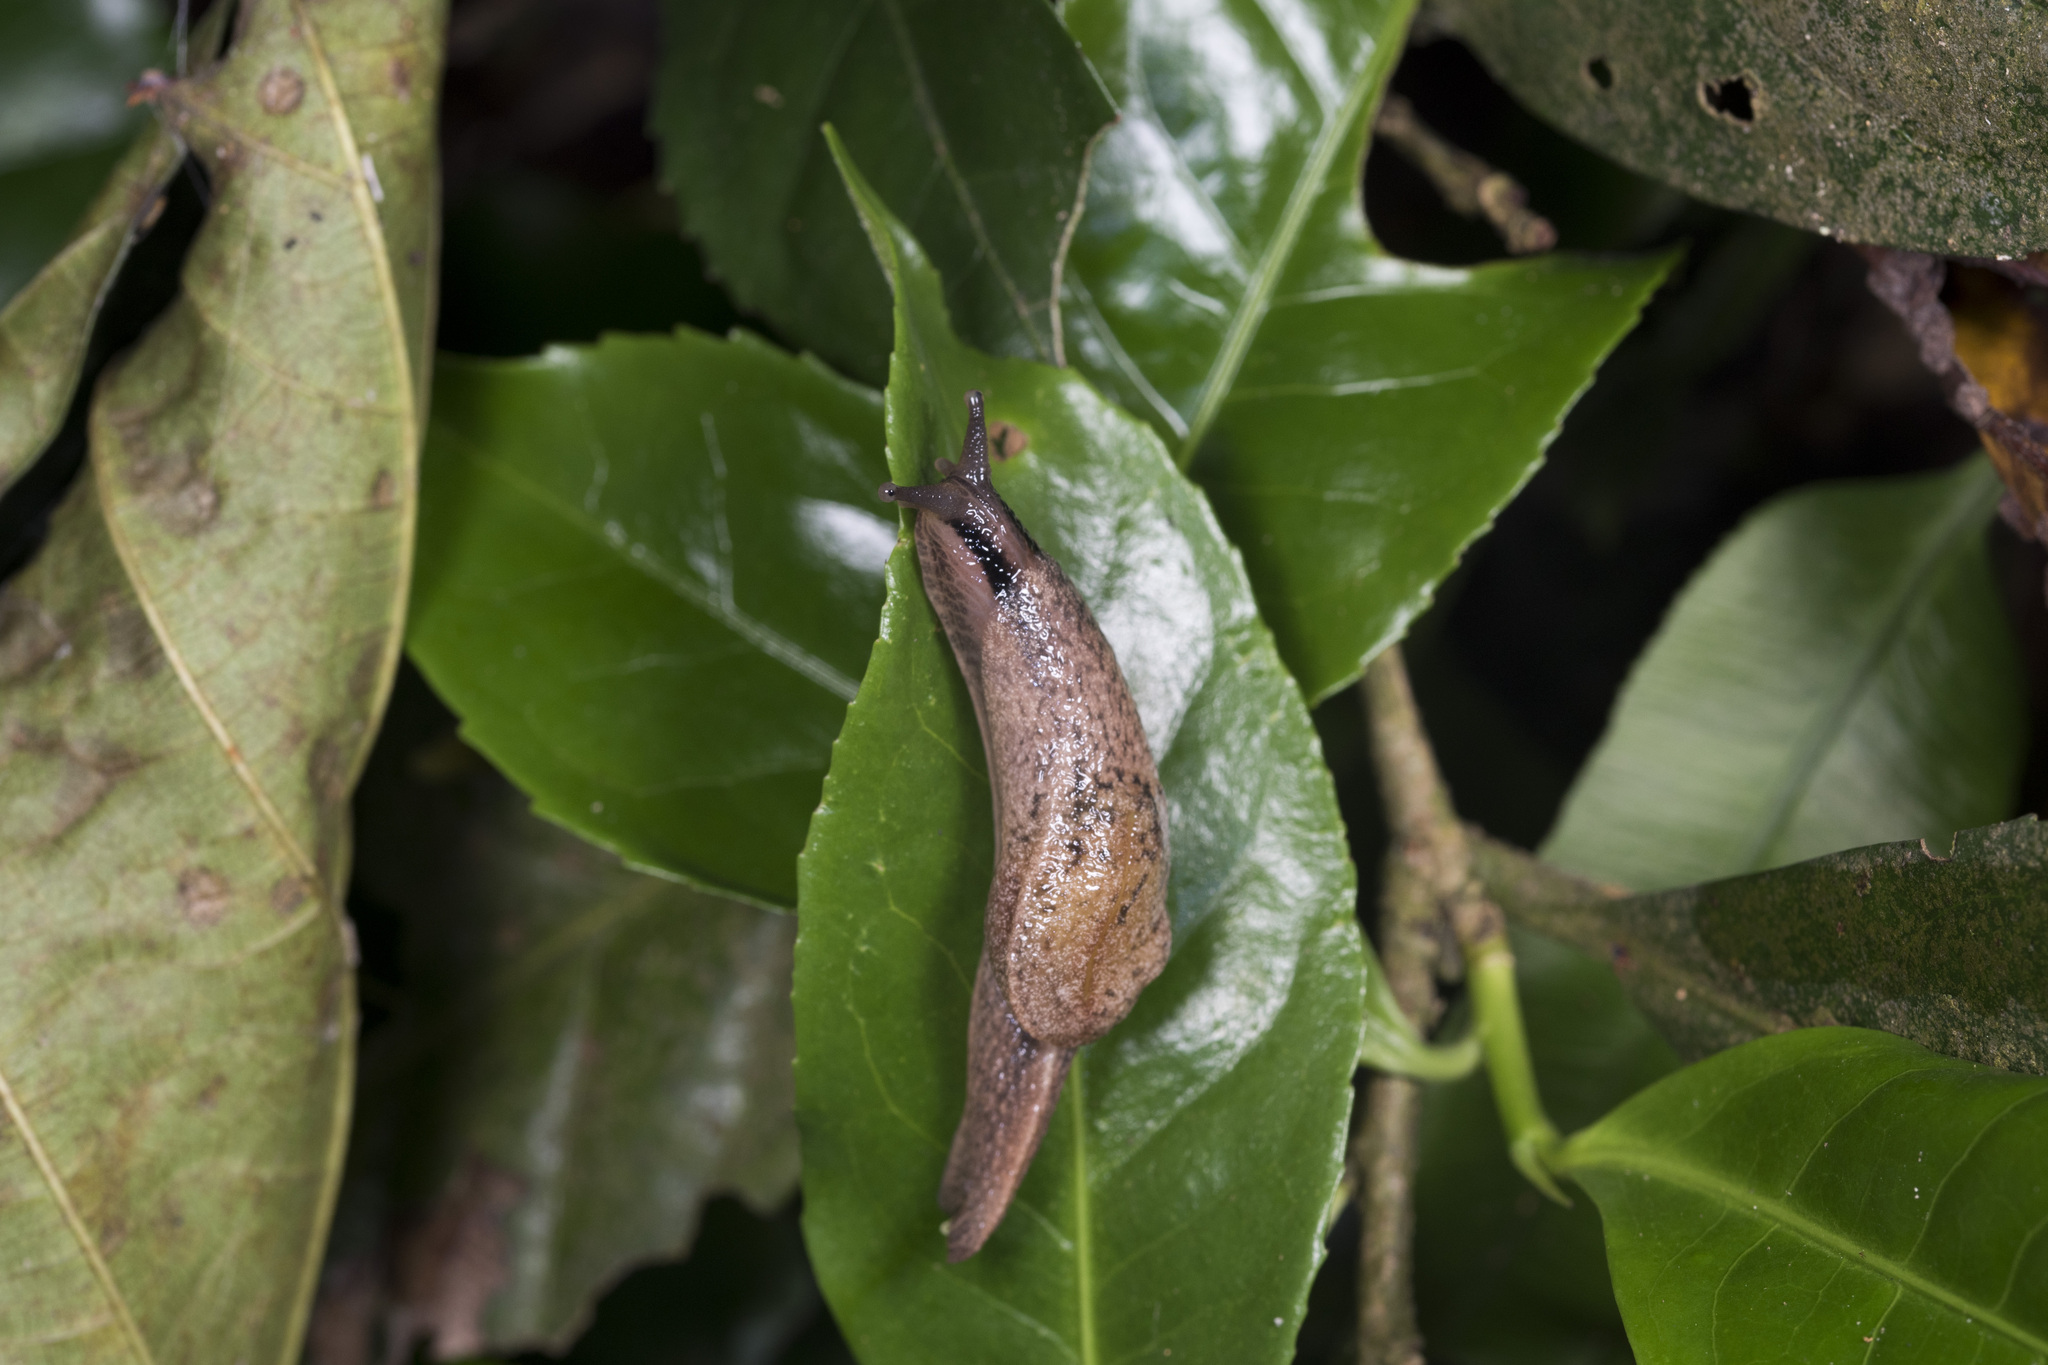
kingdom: Animalia
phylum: Mollusca
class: Gastropoda
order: Stylommatophora
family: Ariophantidae
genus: Parmarion
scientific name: Parmarion martensi
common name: Semi-slug
